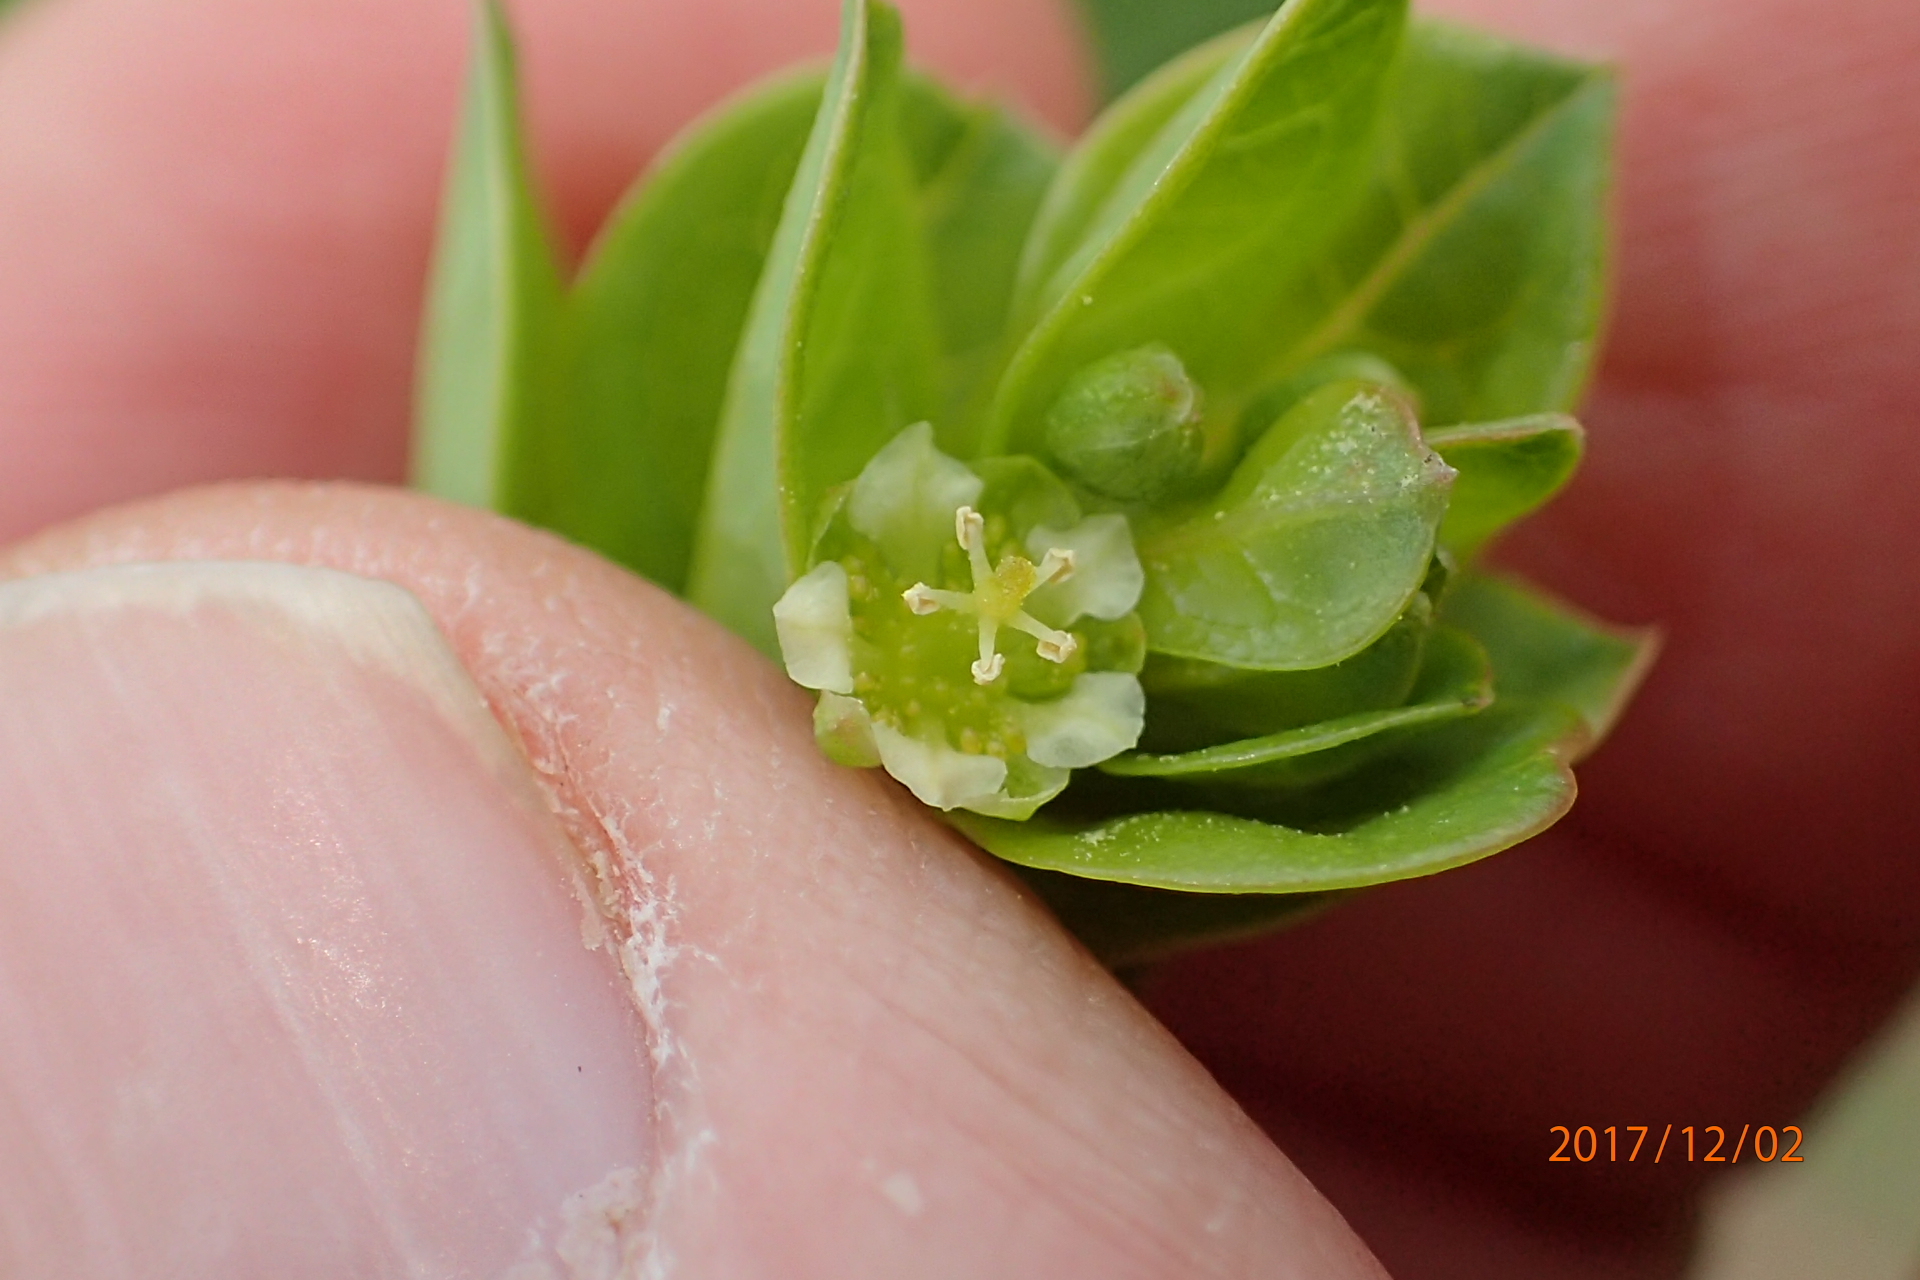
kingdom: Plantae
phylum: Tracheophyta
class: Magnoliopsida
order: Malpighiales
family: Peraceae
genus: Clutia
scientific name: Clutia cordata
